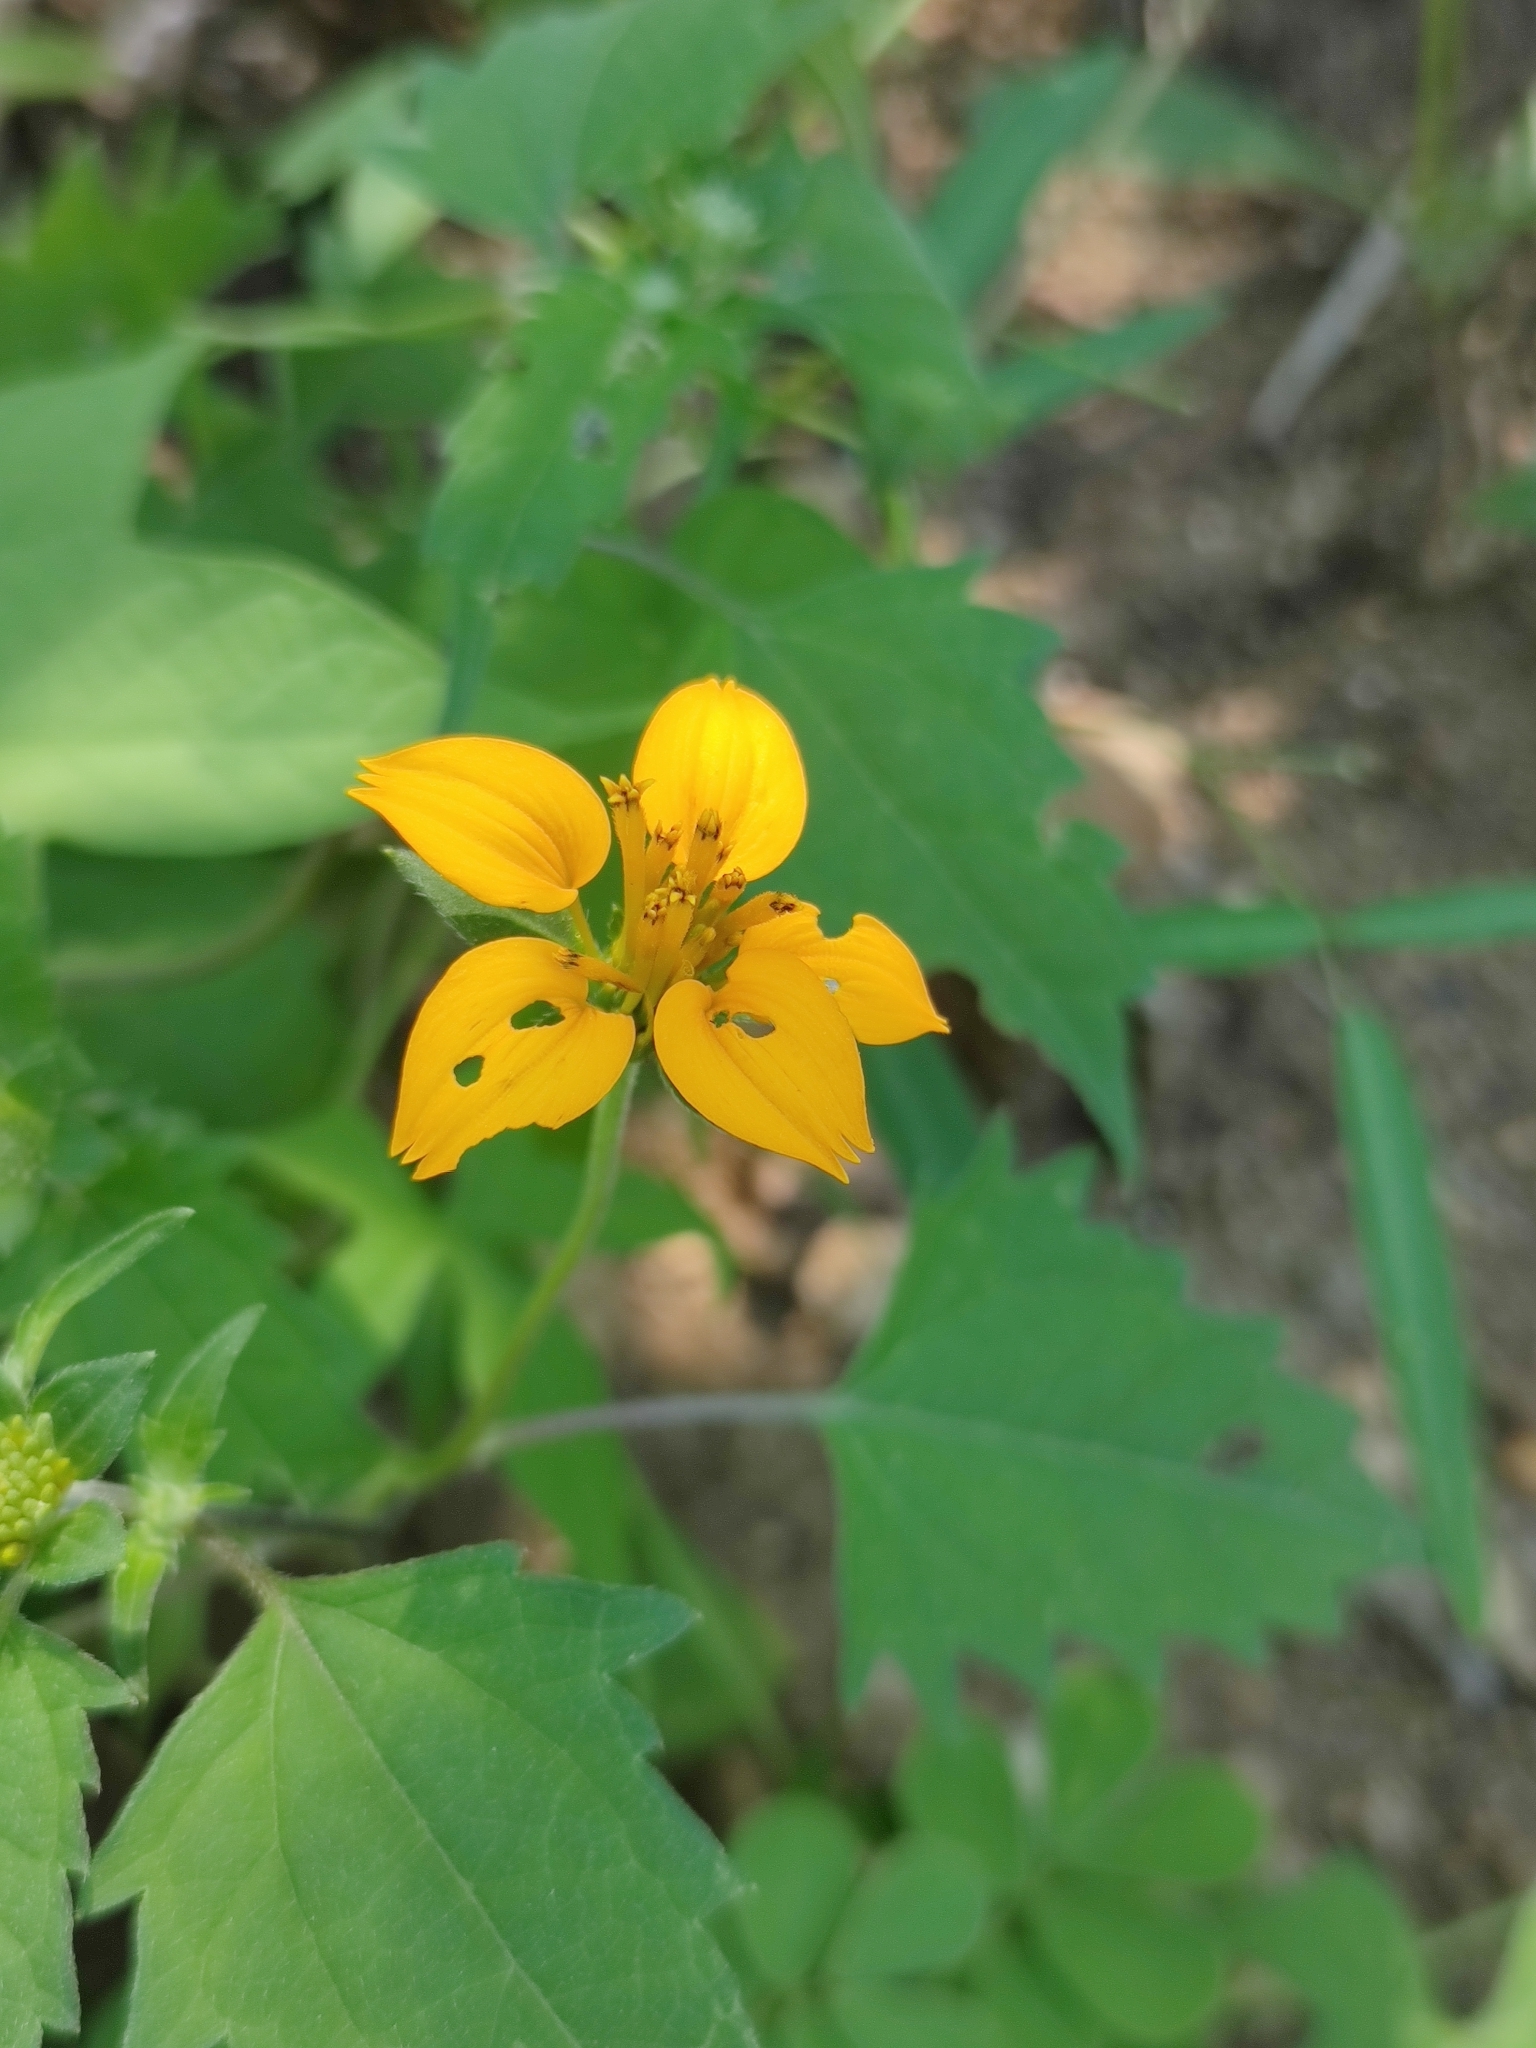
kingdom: Plantae
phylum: Tracheophyta
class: Magnoliopsida
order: Asterales
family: Asteraceae
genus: Sclerocarpus
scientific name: Sclerocarpus divaricatus
